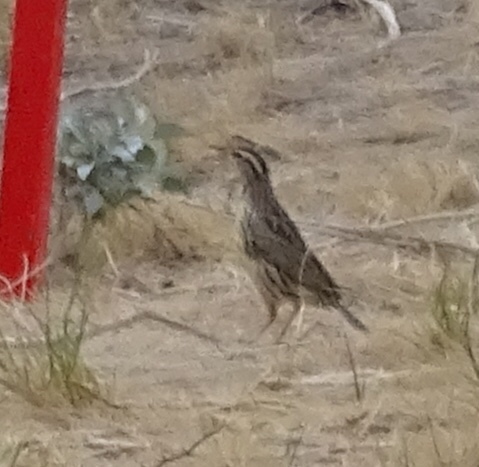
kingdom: Animalia
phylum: Chordata
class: Aves
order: Passeriformes
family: Icteridae
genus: Sturnella
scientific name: Sturnella neglecta
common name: Western meadowlark
